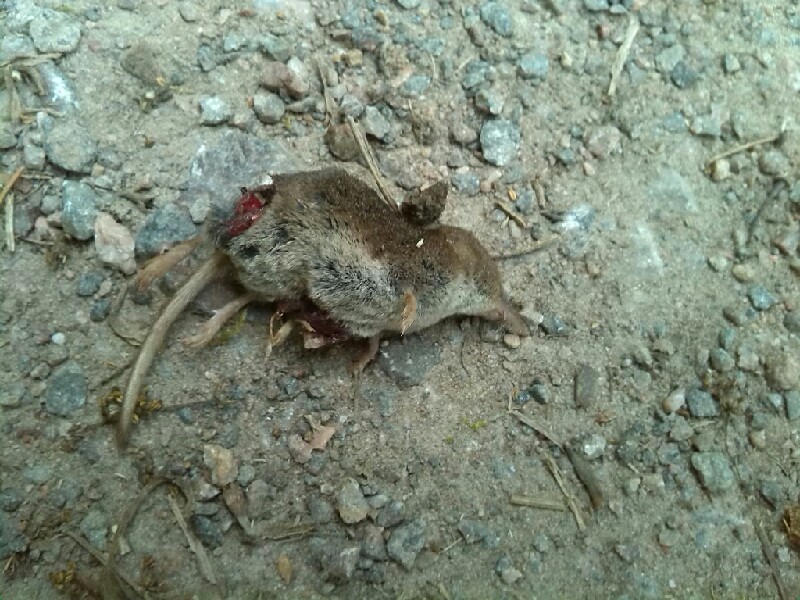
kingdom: Animalia
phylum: Chordata
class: Mammalia
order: Soricomorpha
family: Soricidae
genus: Sorex
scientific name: Sorex araneus
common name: Common shrew
